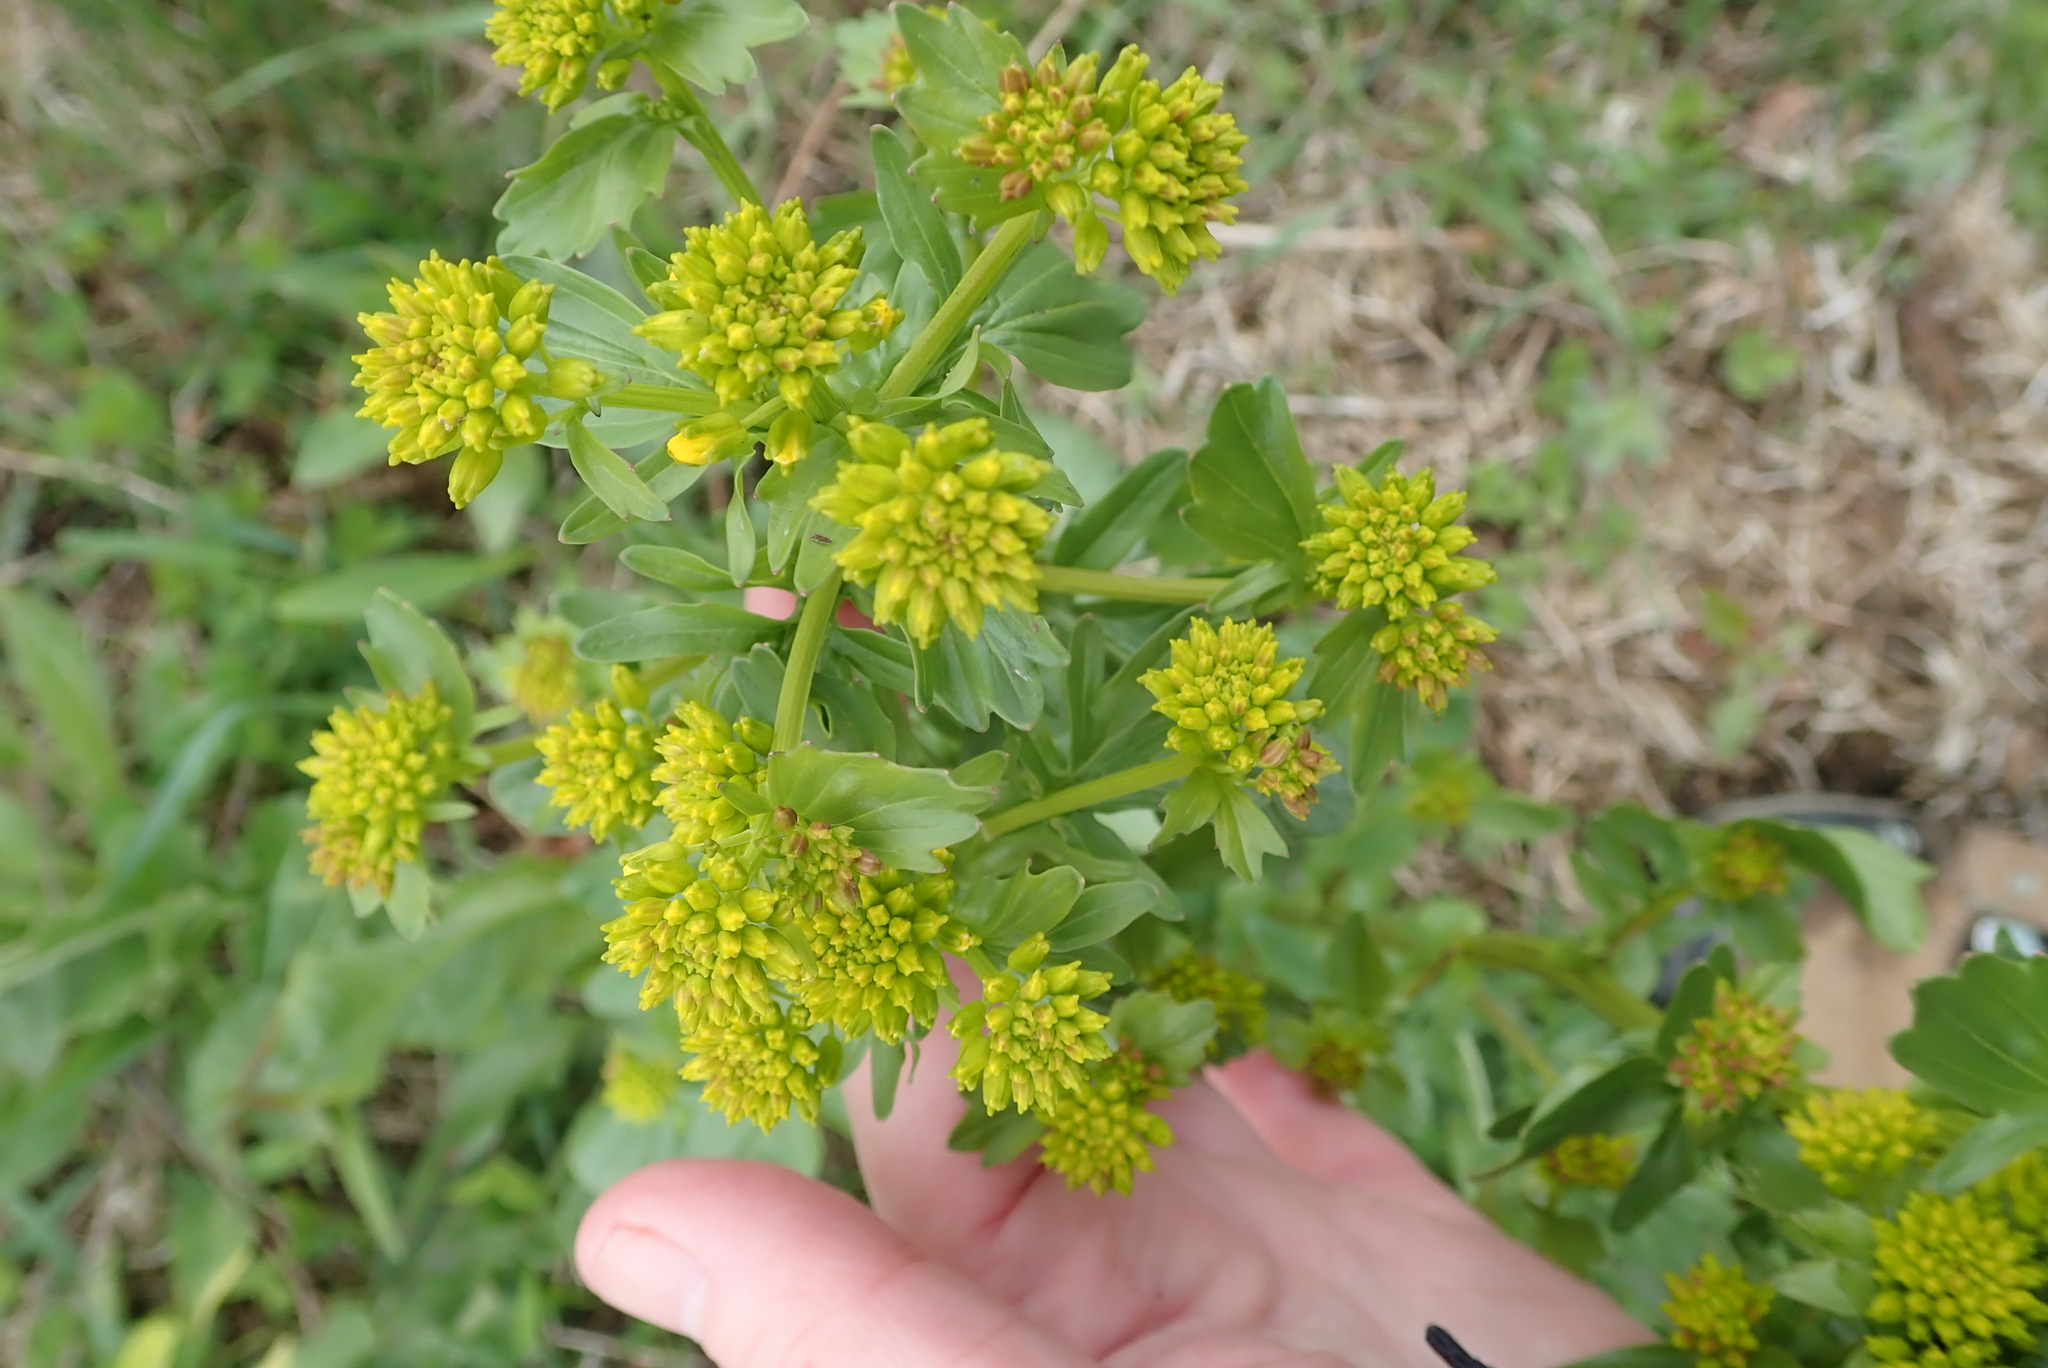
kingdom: Plantae
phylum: Tracheophyta
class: Magnoliopsida
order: Brassicales
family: Brassicaceae
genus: Barbarea
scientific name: Barbarea vulgaris
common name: Cressy-greens
